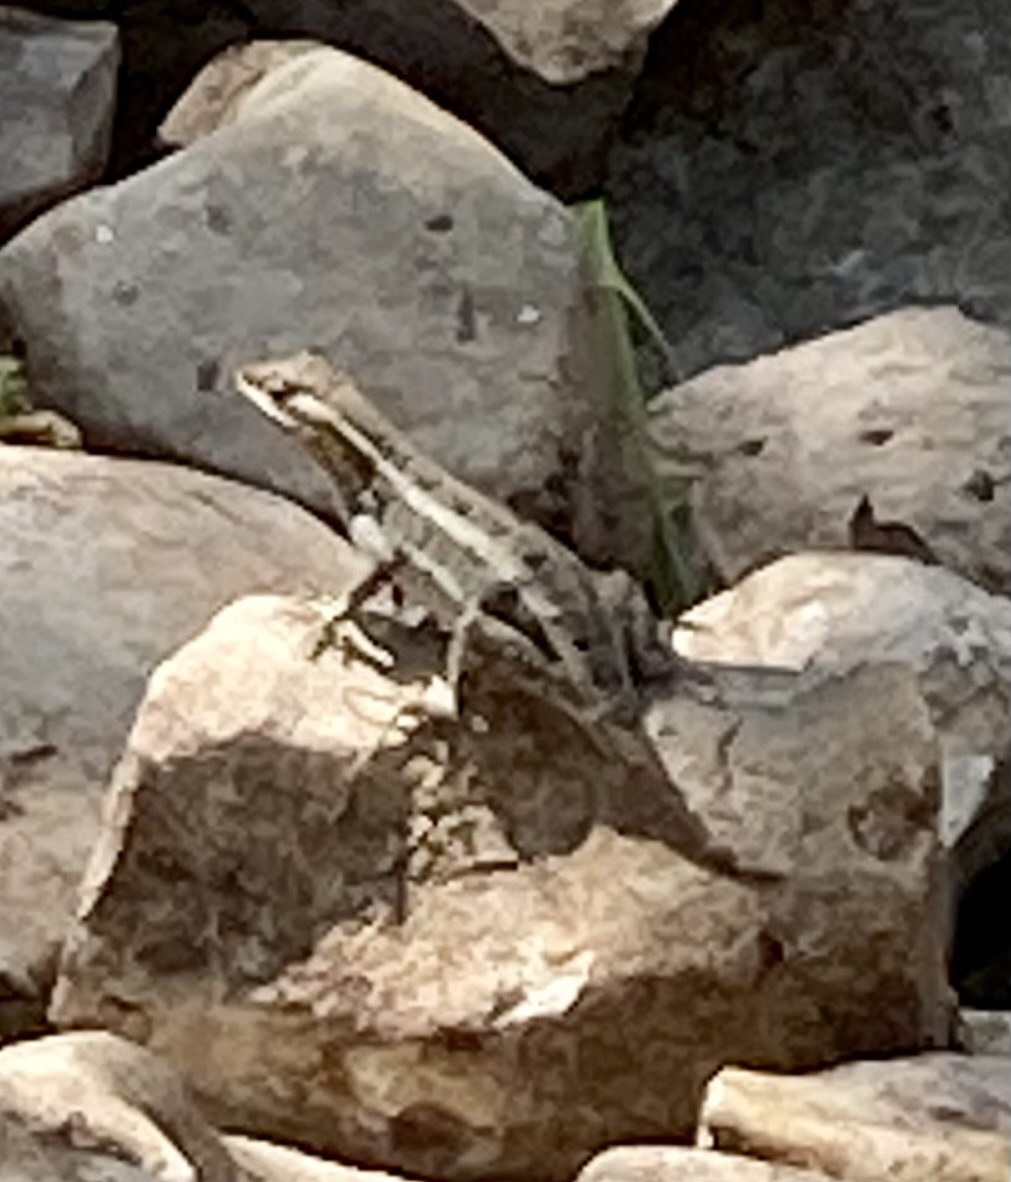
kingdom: Animalia
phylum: Chordata
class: Squamata
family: Phrynosomatidae
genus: Sceloporus
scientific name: Sceloporus variabilis
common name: Rosebelly lizard
